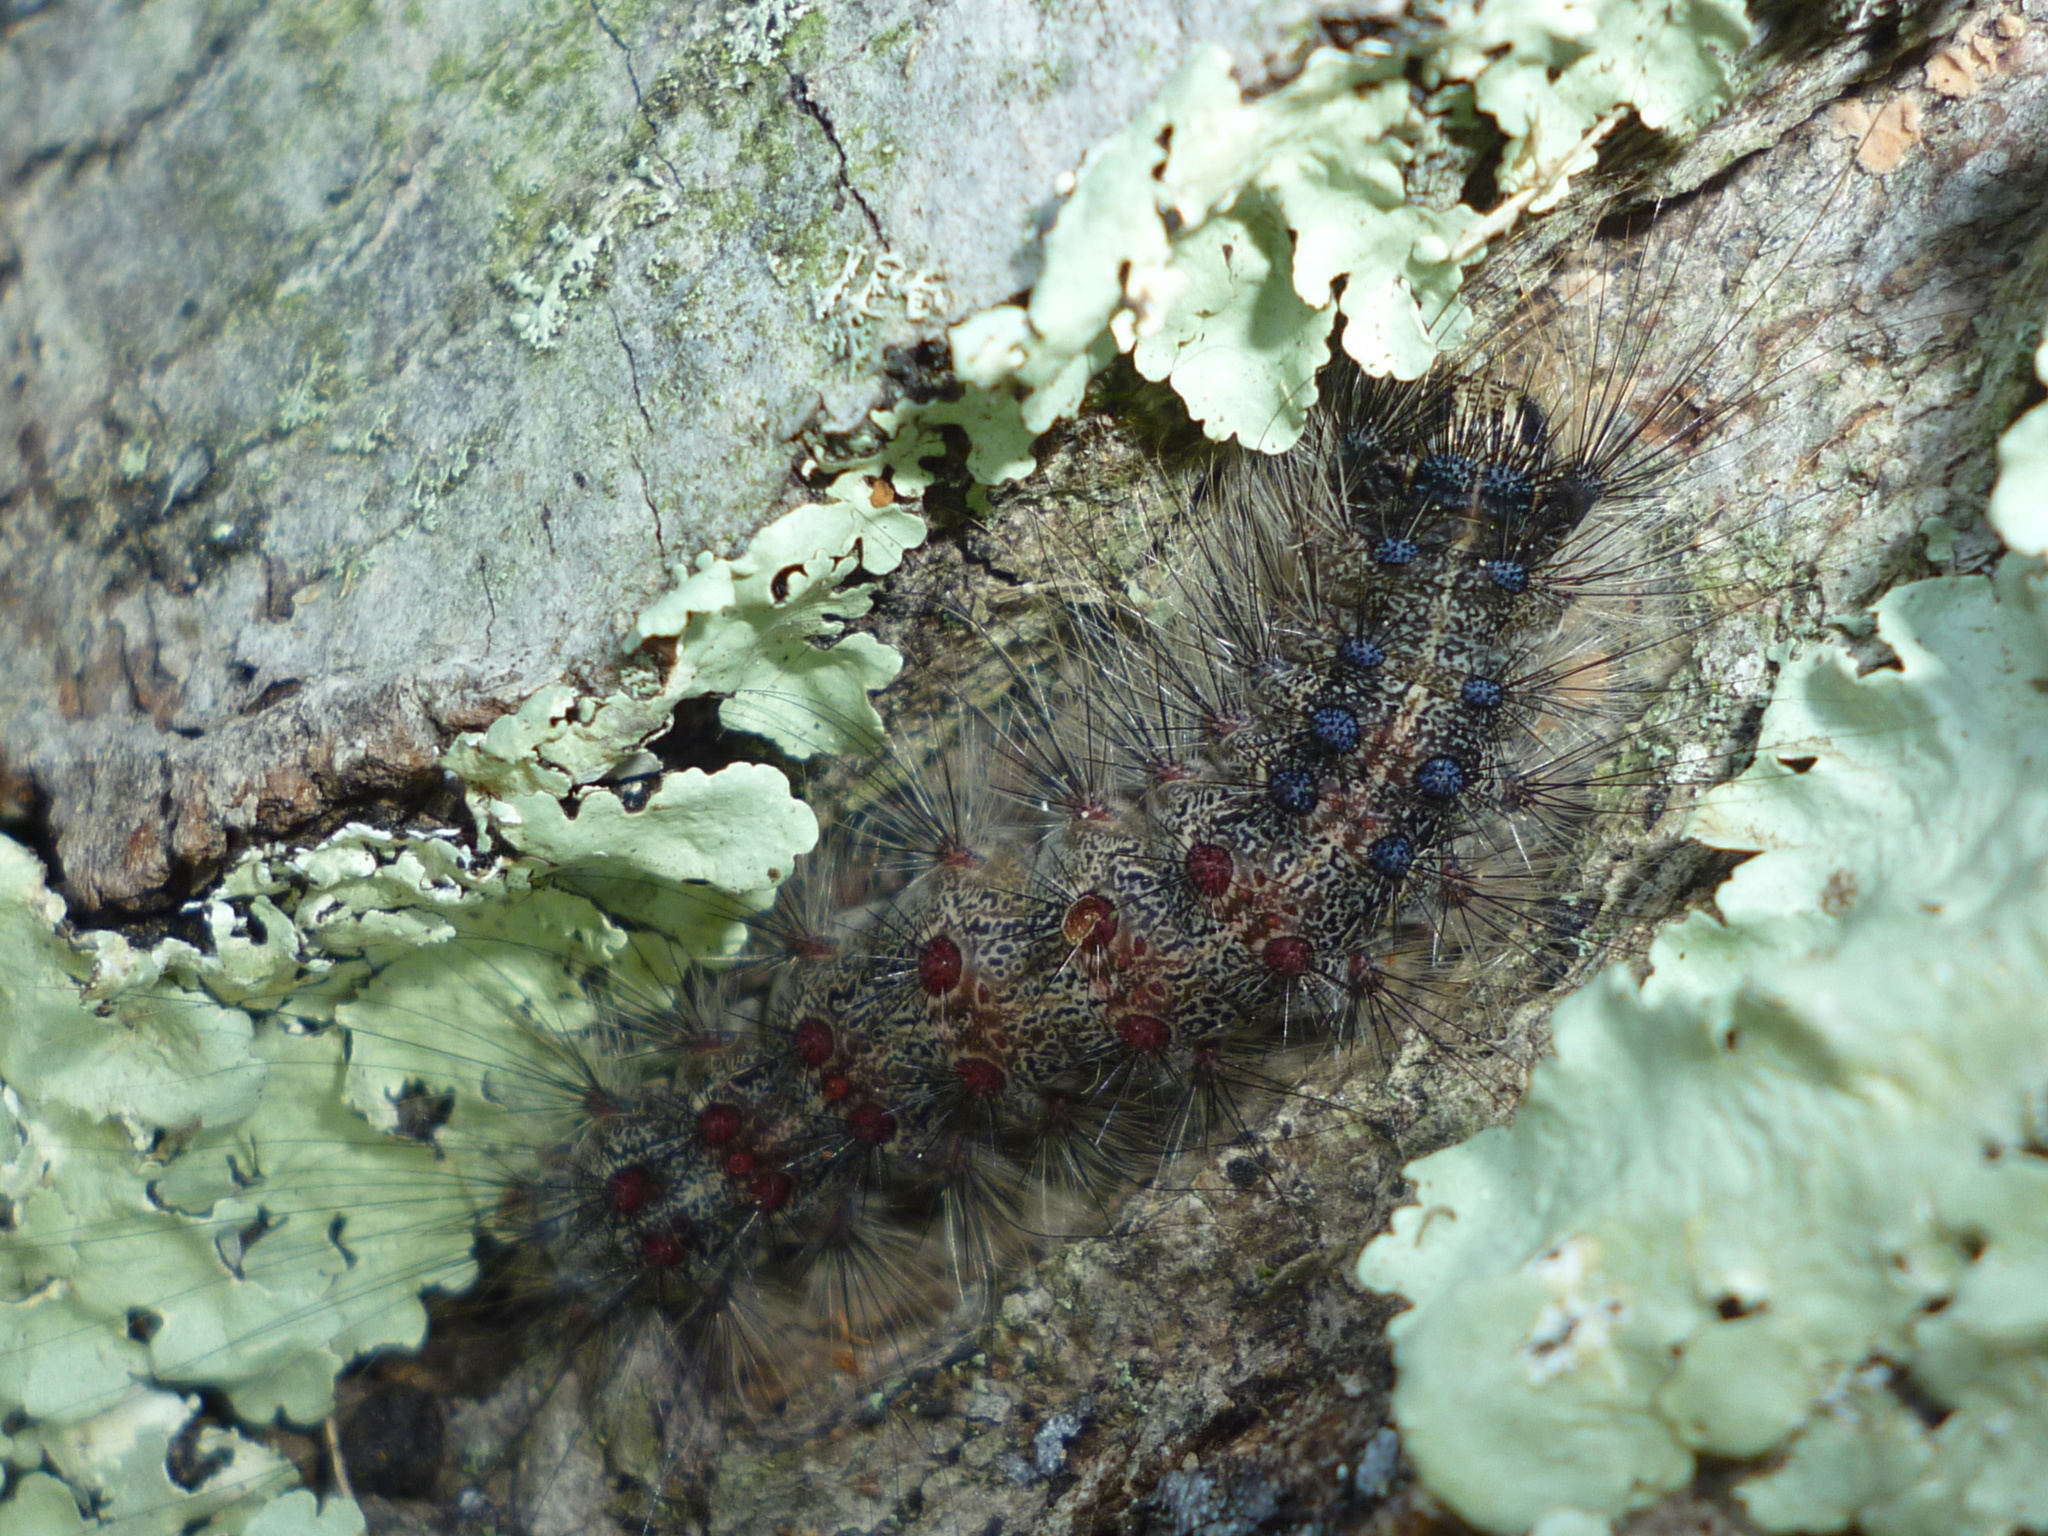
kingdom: Animalia
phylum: Arthropoda
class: Insecta
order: Lepidoptera
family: Erebidae
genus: Lymantria
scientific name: Lymantria dispar
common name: Gypsy moth
